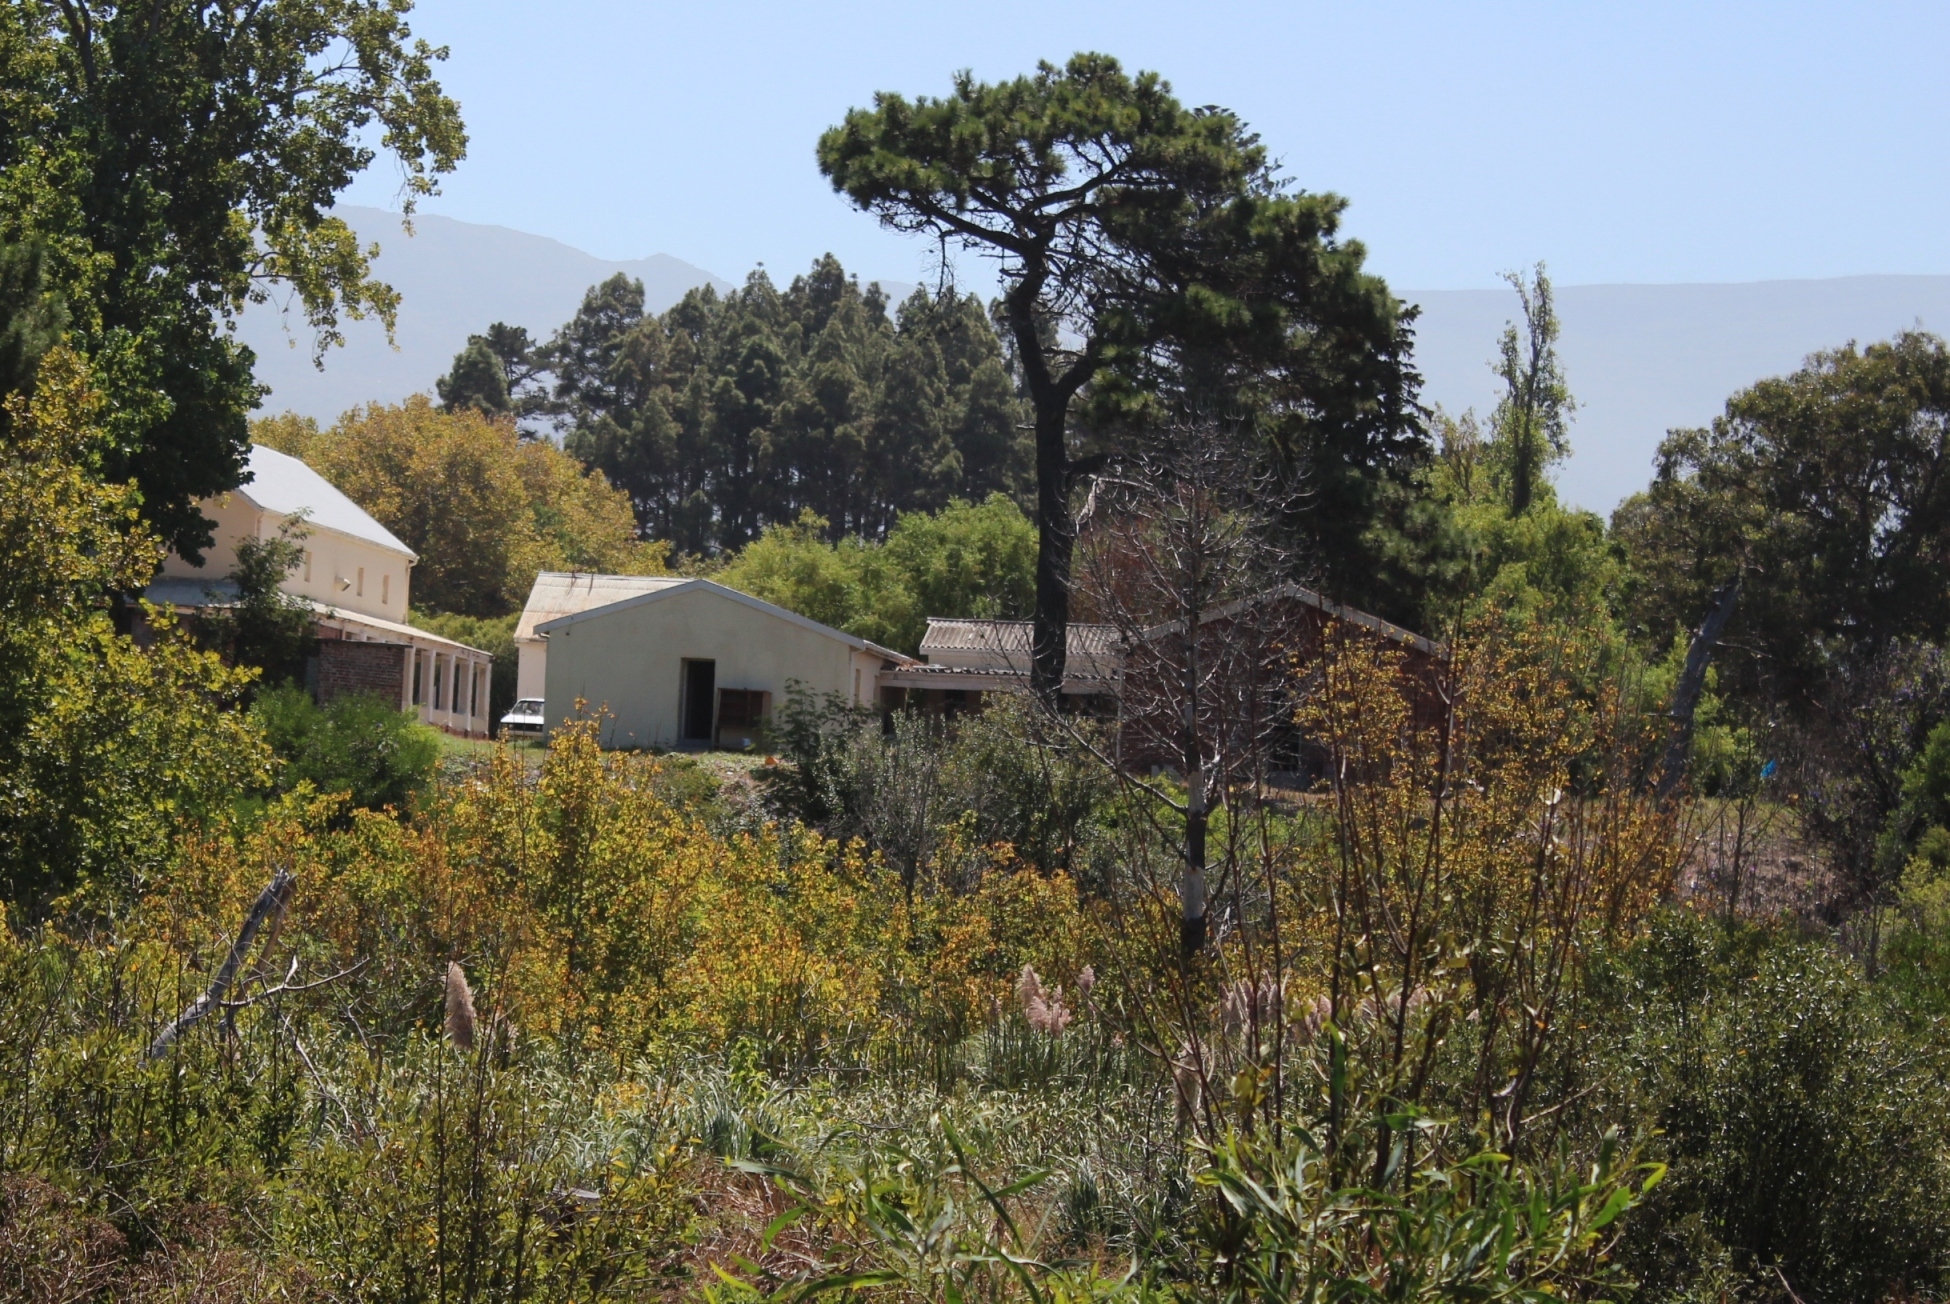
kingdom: Plantae
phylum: Tracheophyta
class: Magnoliopsida
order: Sapindales
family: Sapindaceae
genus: Acer
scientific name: Acer negundo
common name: Ashleaf maple
